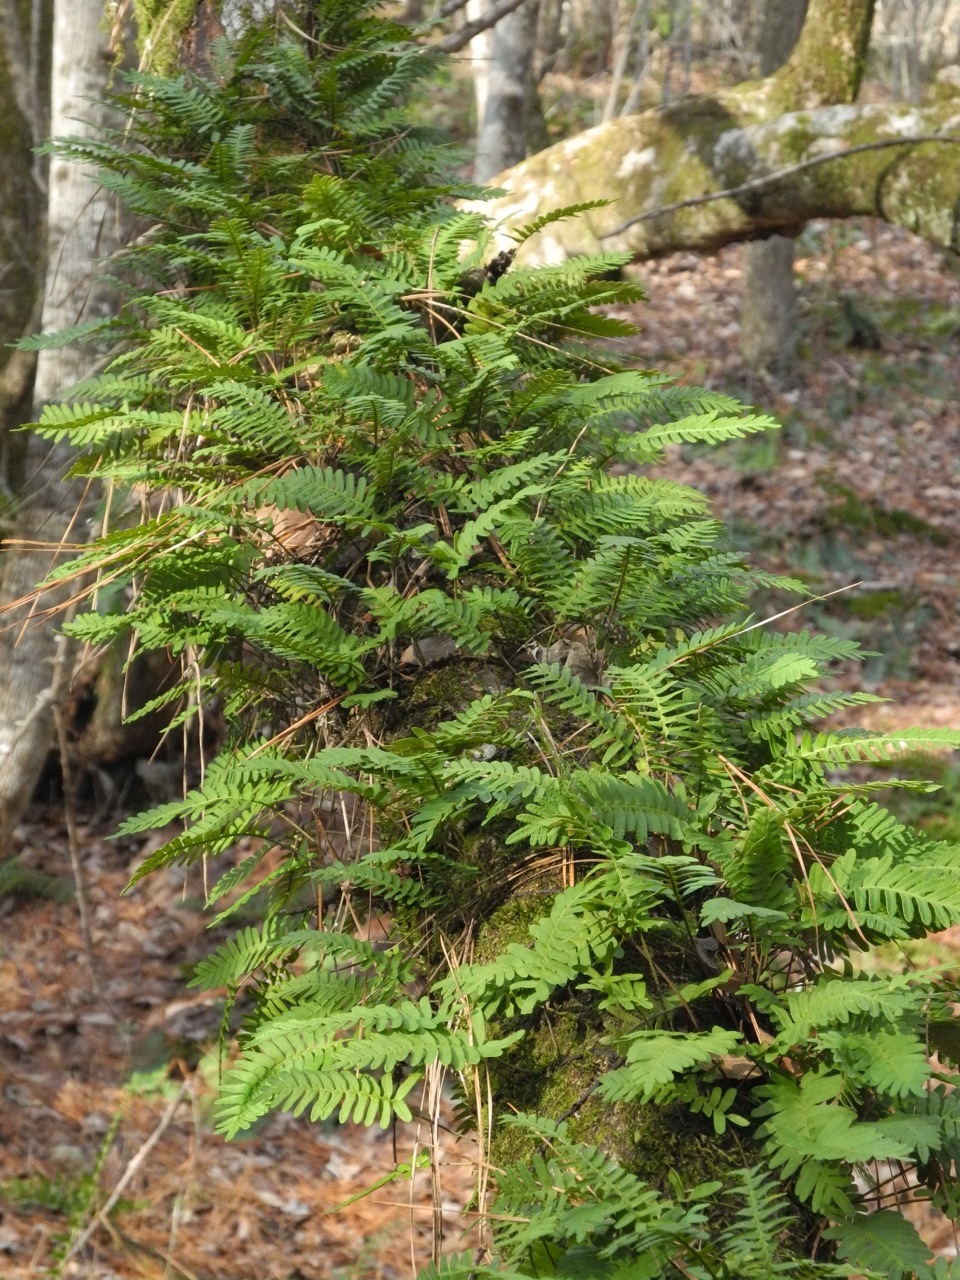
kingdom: Plantae
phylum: Tracheophyta
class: Polypodiopsida
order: Polypodiales
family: Polypodiaceae
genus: Pleopeltis
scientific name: Pleopeltis michauxiana
